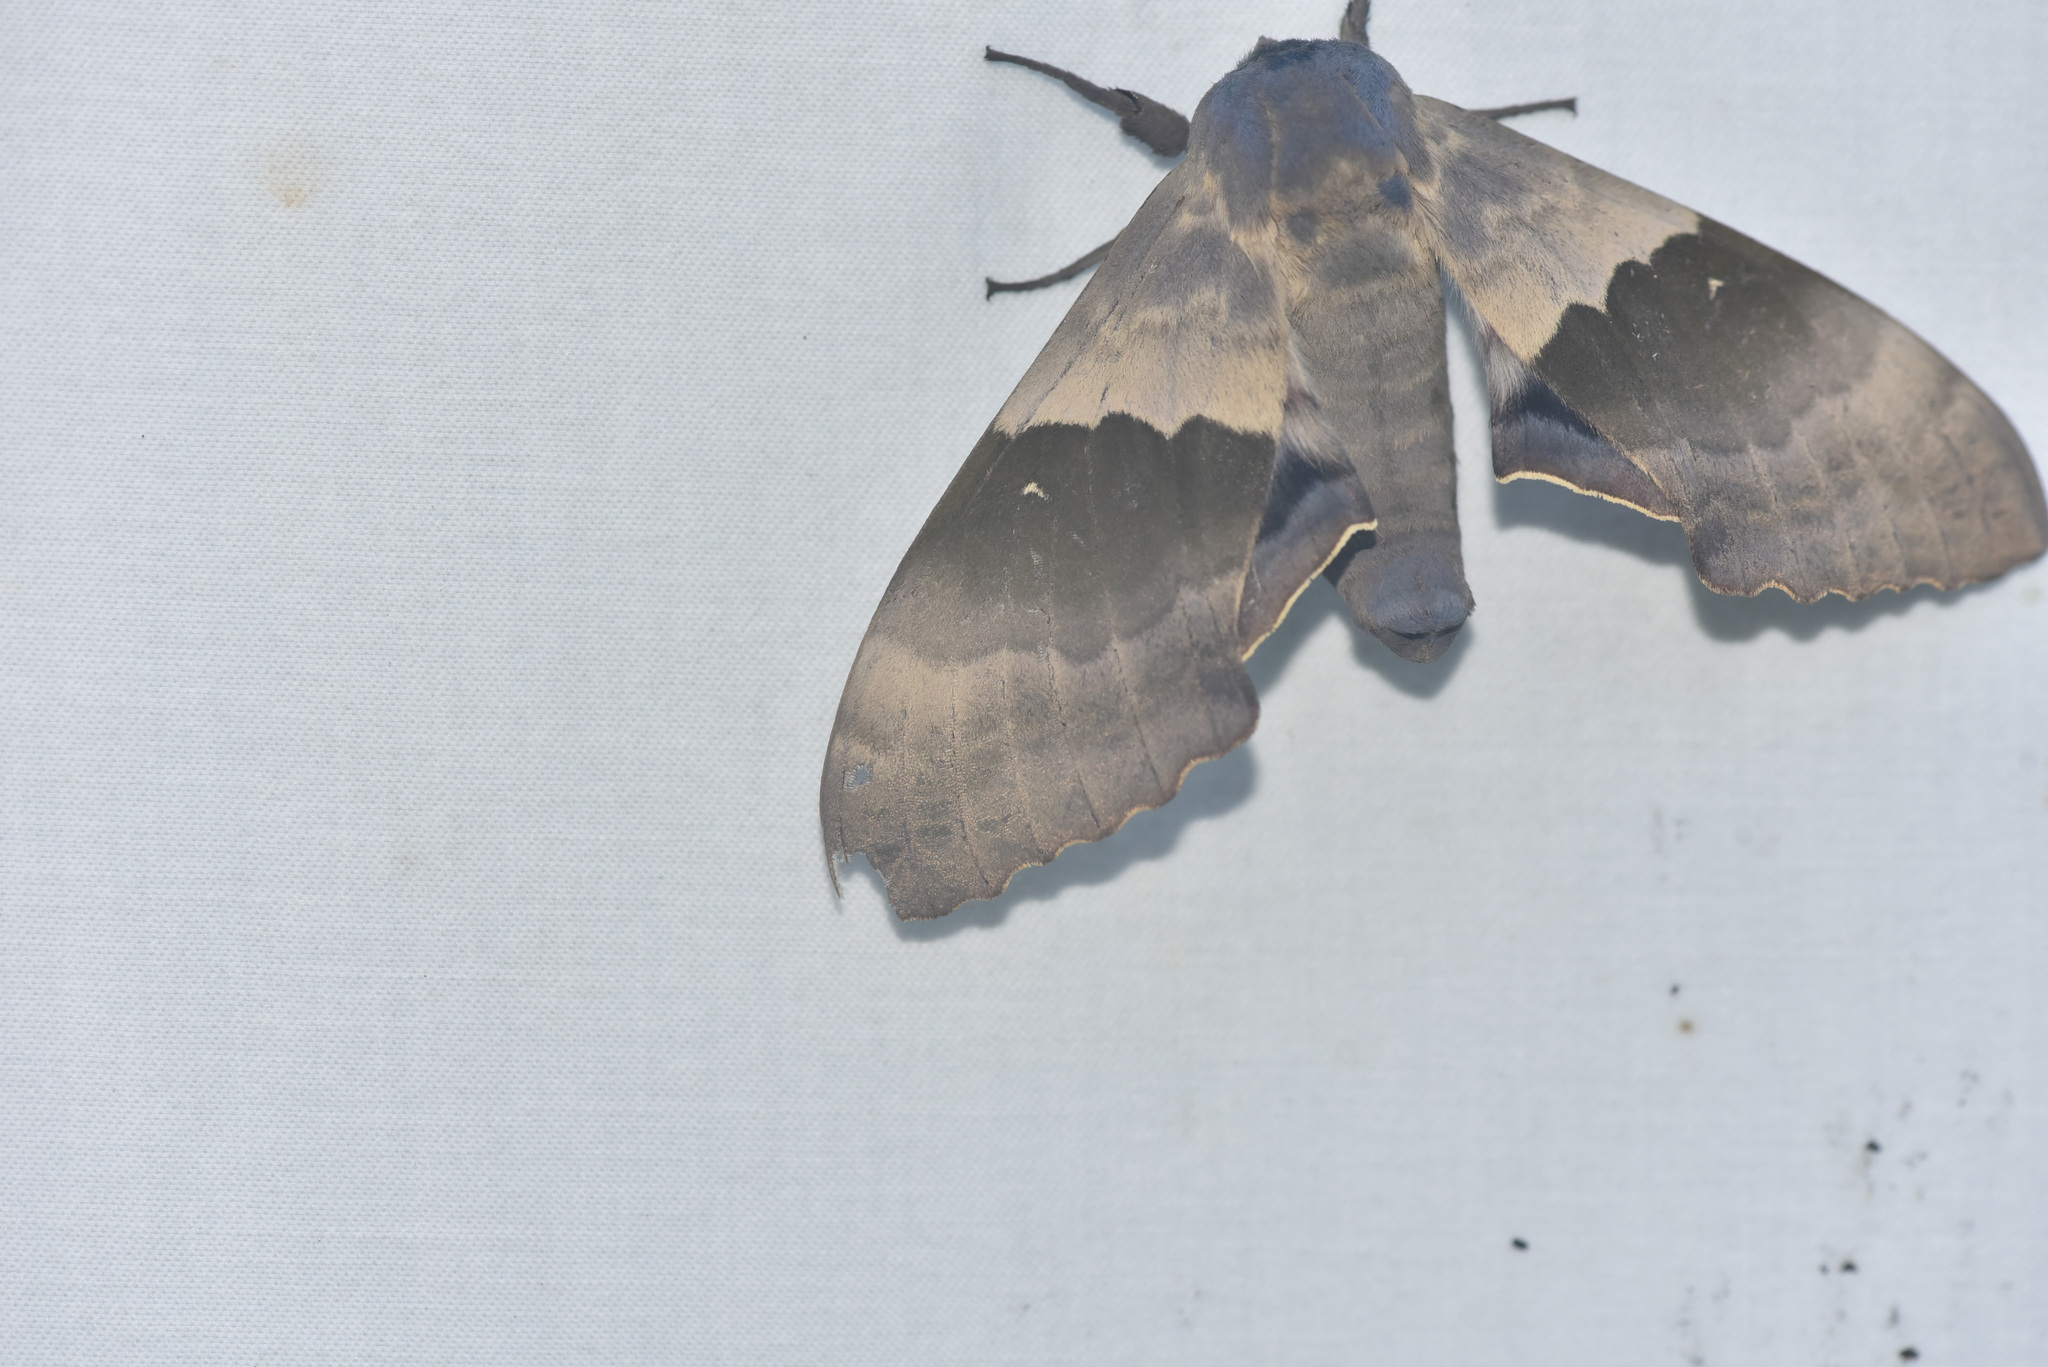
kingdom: Animalia
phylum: Arthropoda
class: Insecta
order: Lepidoptera
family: Sphingidae
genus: Pachysphinx
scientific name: Pachysphinx modesta
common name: Big poplar sphinx
